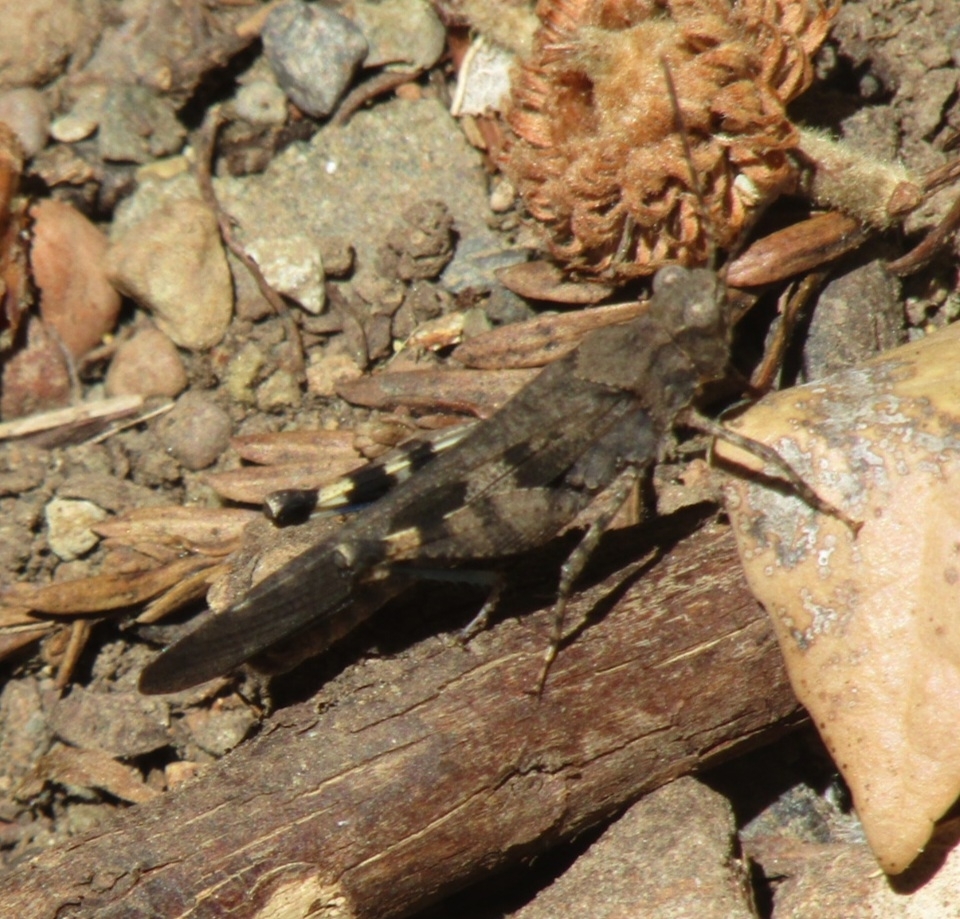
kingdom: Animalia
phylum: Arthropoda
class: Insecta
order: Orthoptera
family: Acrididae
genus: Trimerotropis
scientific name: Trimerotropis fontana
